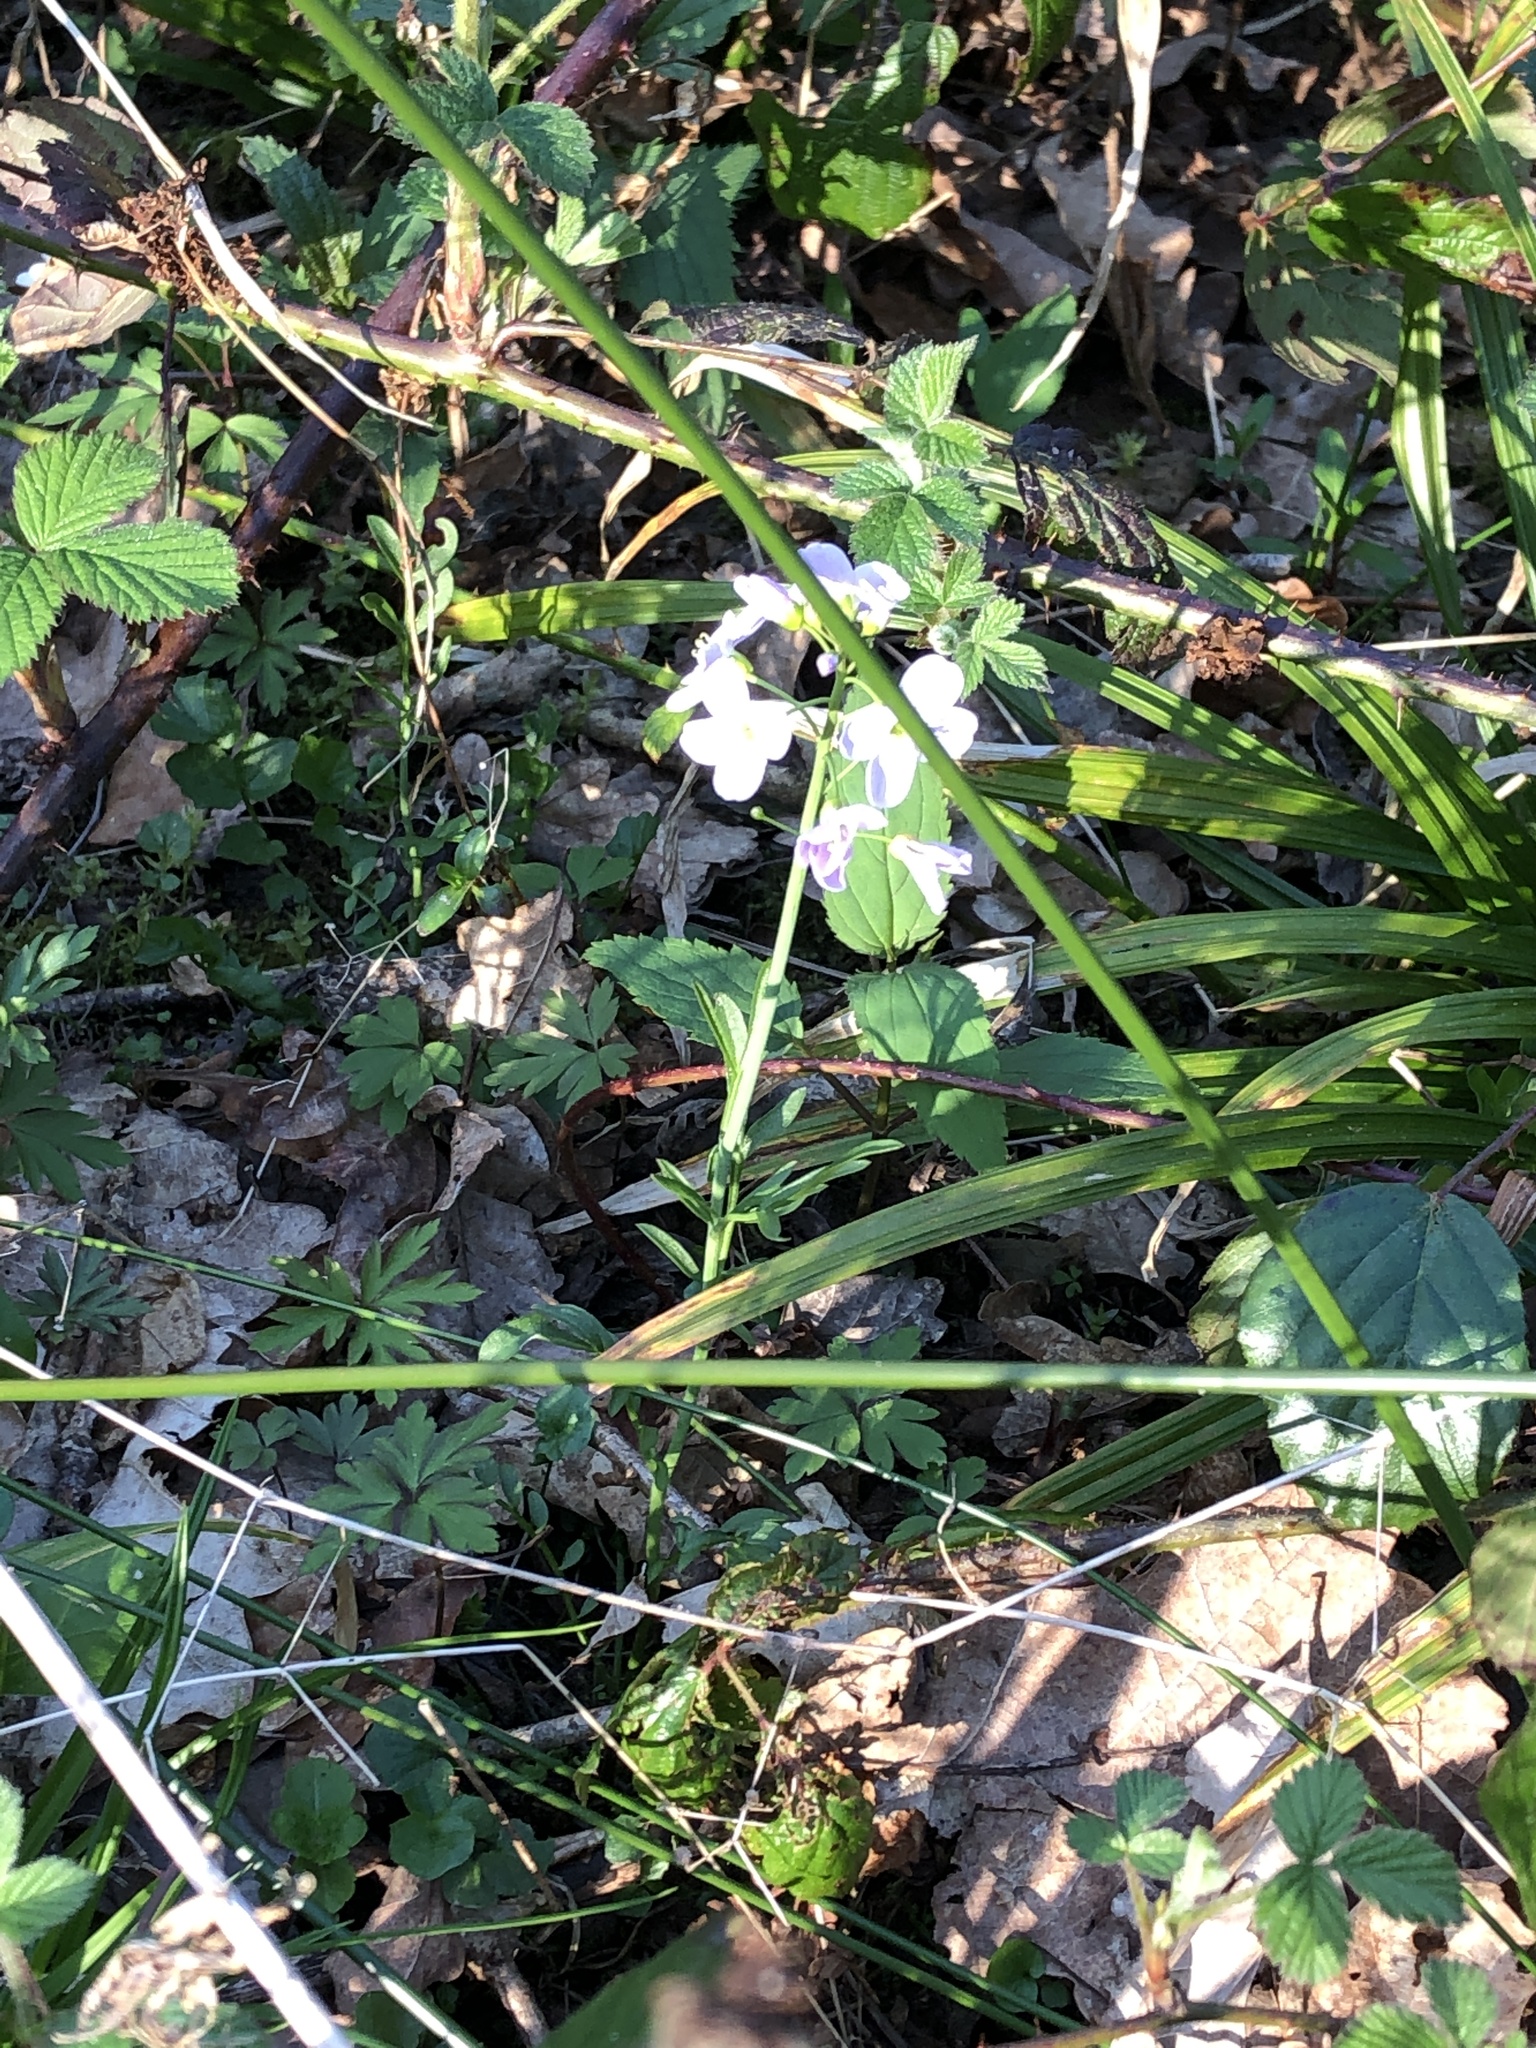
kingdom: Plantae
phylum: Tracheophyta
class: Magnoliopsida
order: Brassicales
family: Brassicaceae
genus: Cardamine
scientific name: Cardamine pratensis
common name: Cuckoo flower
